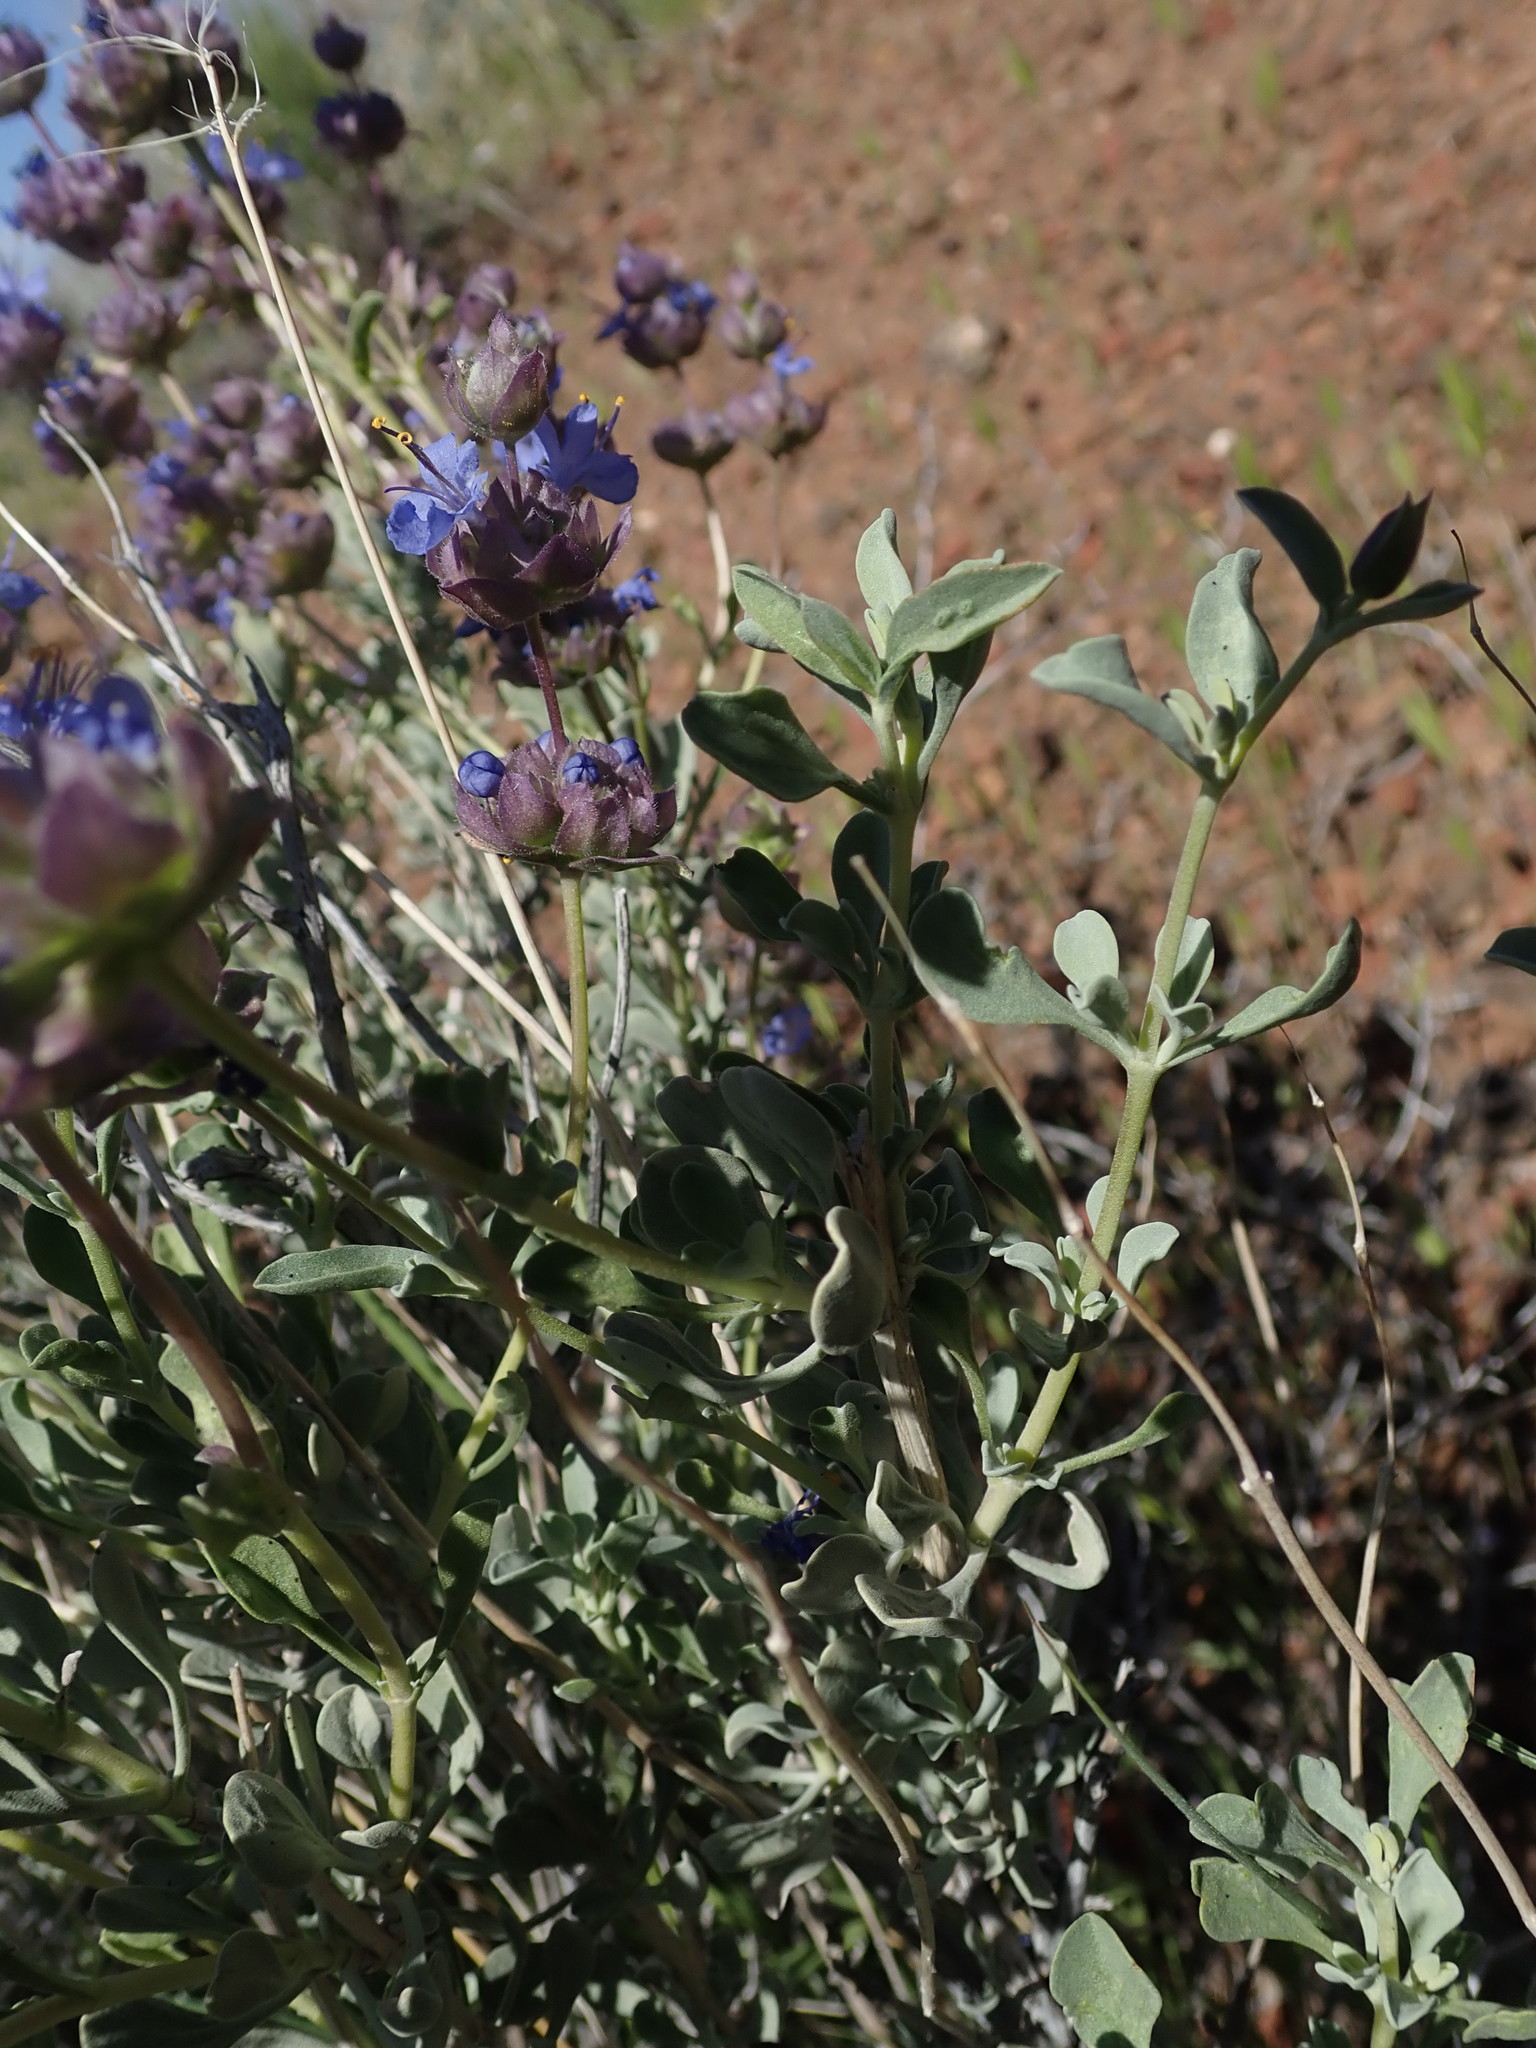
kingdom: Plantae
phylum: Tracheophyta
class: Magnoliopsida
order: Lamiales
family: Lamiaceae
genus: Salvia
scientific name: Salvia dorrii
